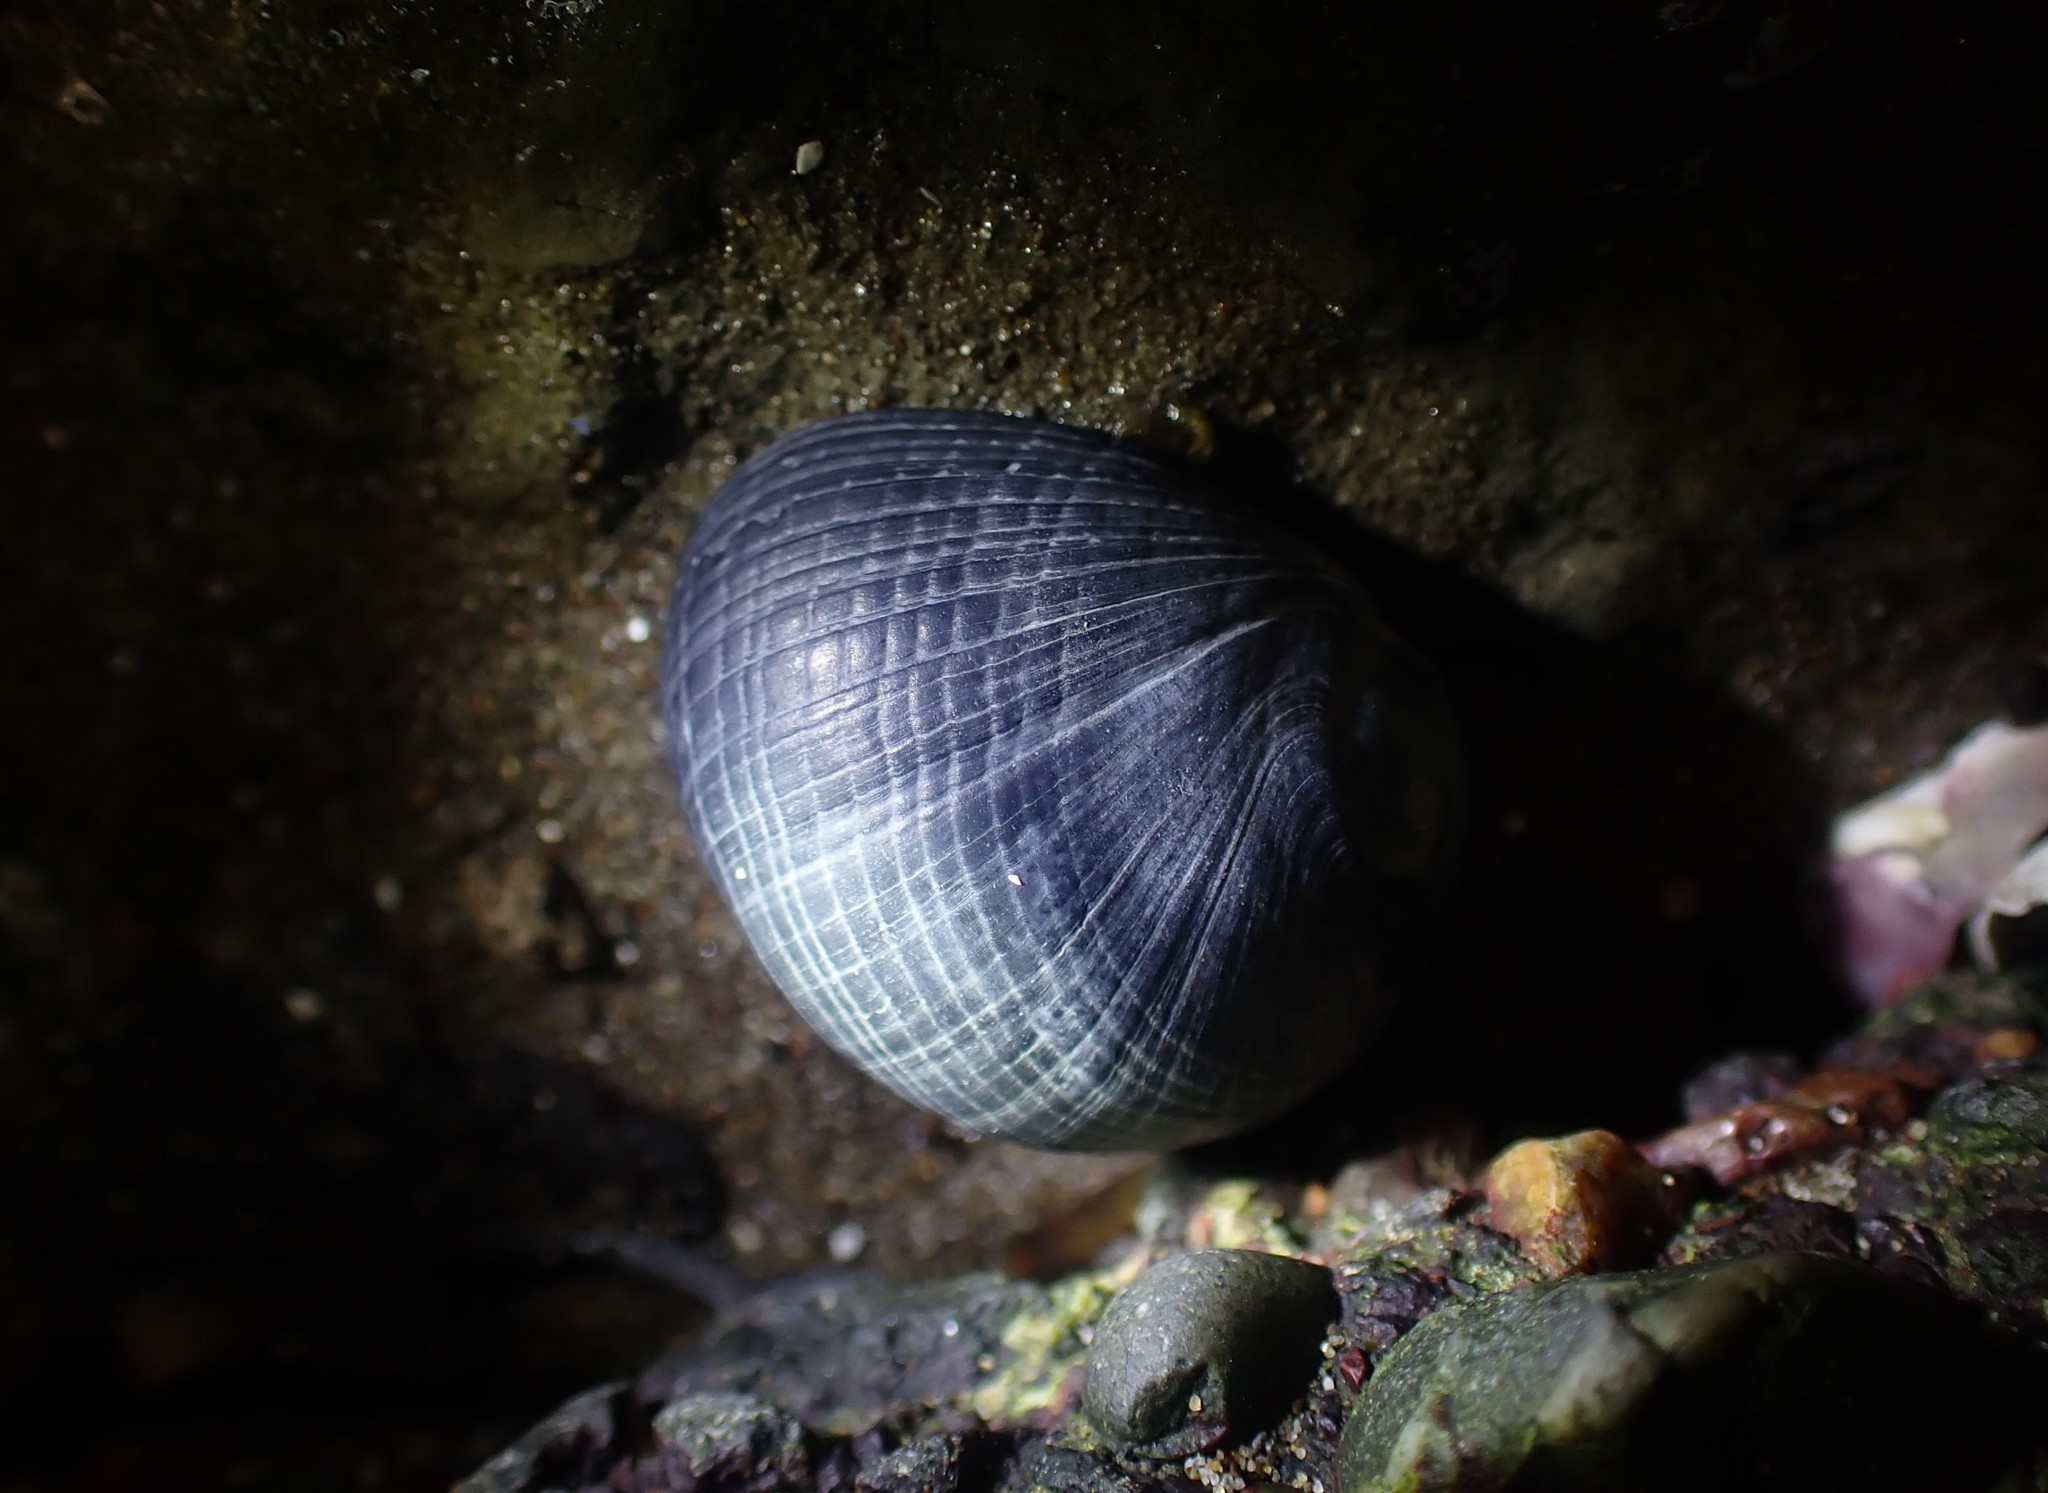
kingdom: Animalia
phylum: Mollusca
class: Gastropoda
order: Cycloneritida
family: Neritidae
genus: Nerita
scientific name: Nerita melanotragus
